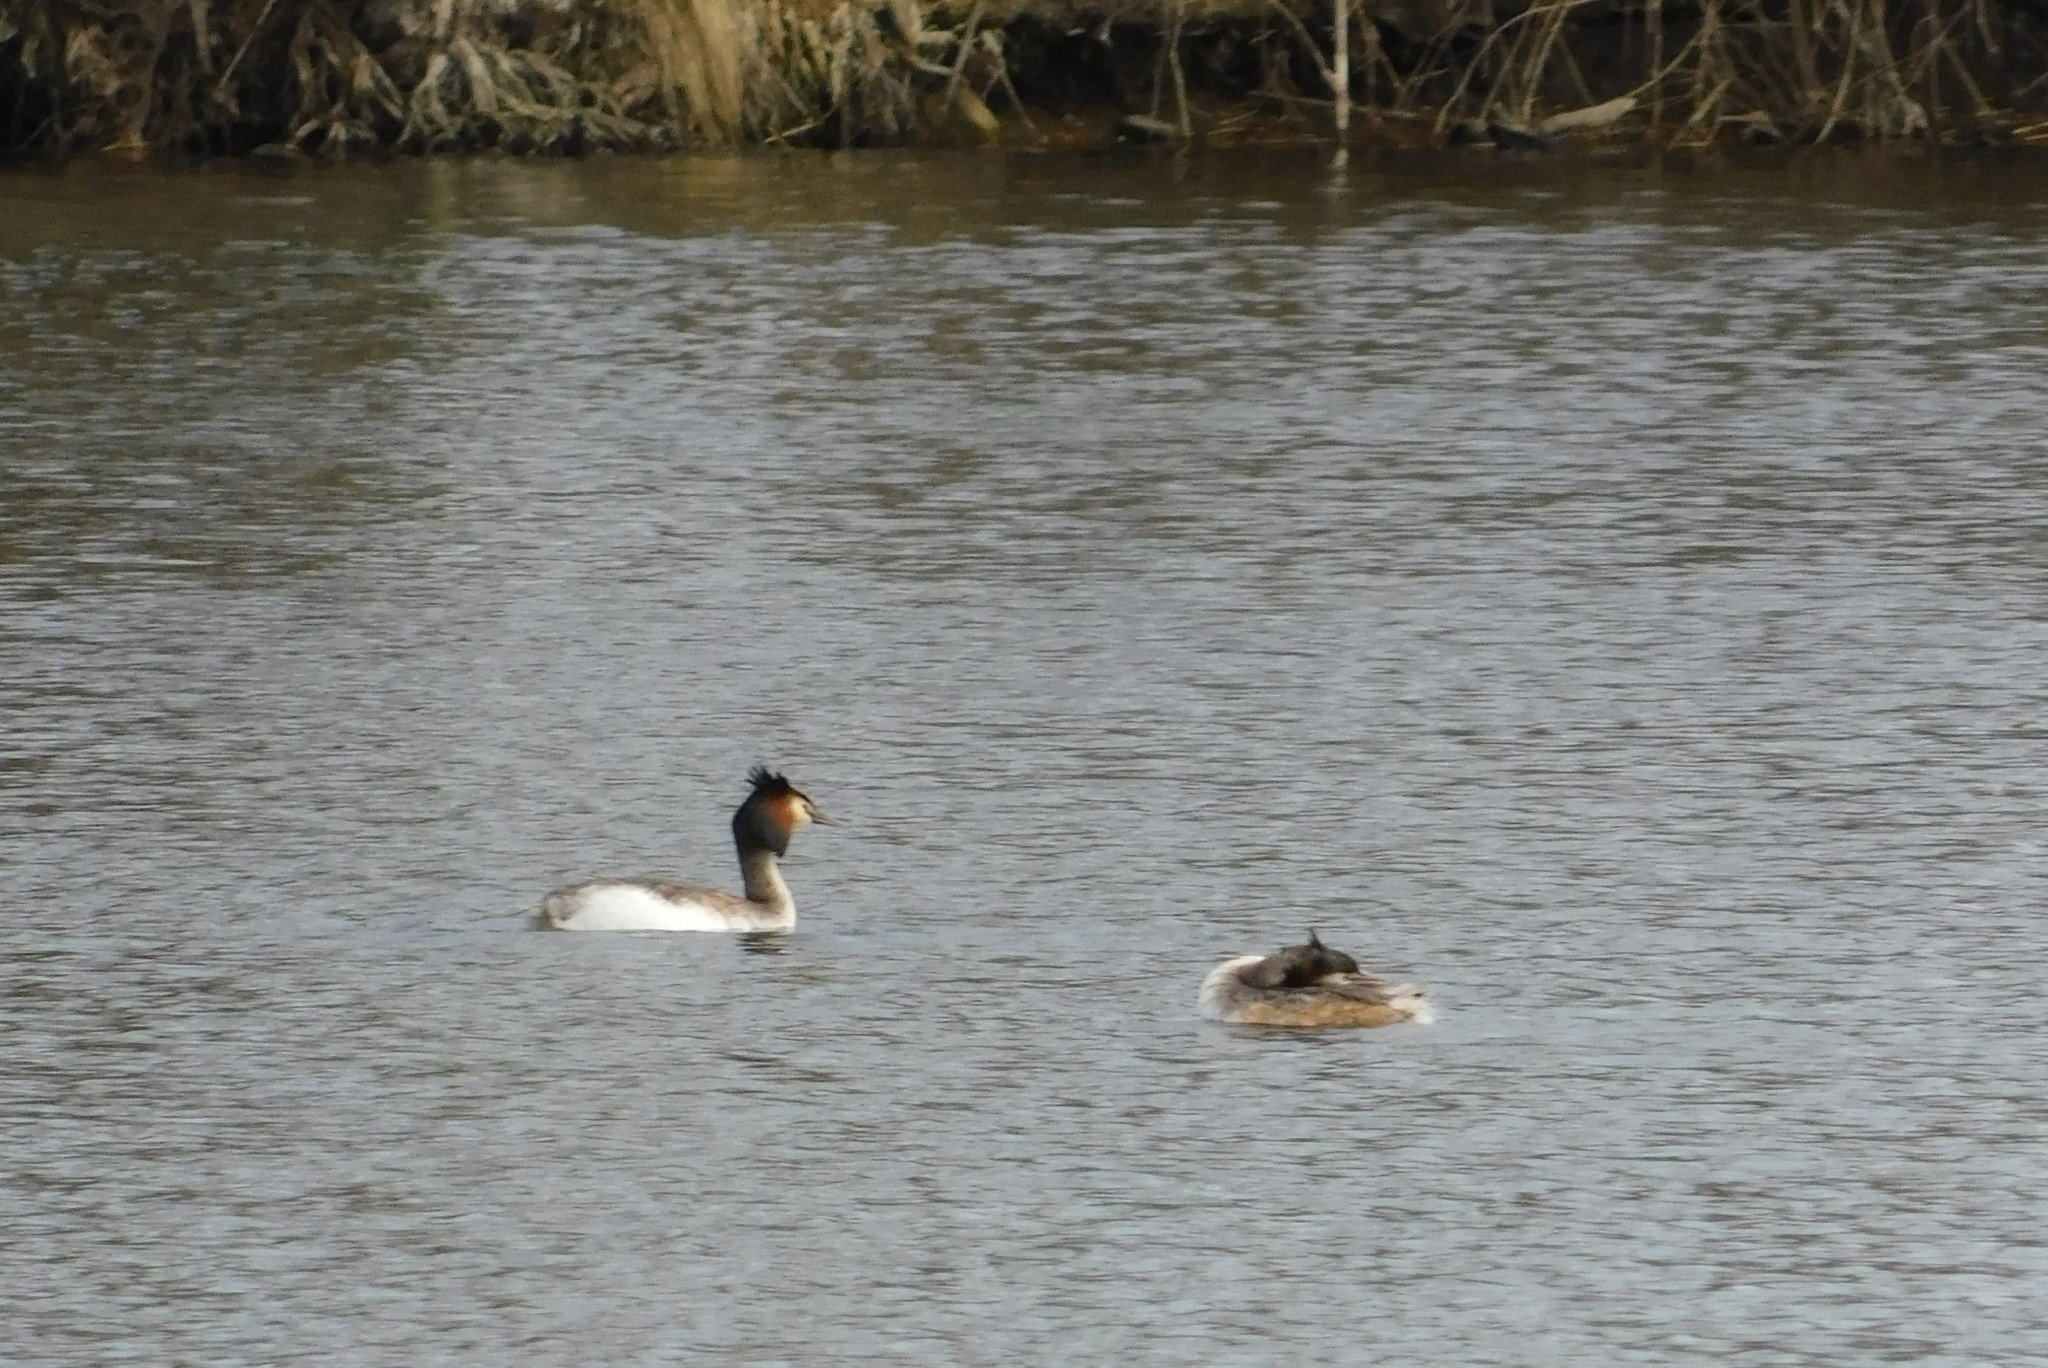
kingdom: Animalia
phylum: Chordata
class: Aves
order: Podicipediformes
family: Podicipedidae
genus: Podiceps
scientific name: Podiceps cristatus
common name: Great crested grebe
